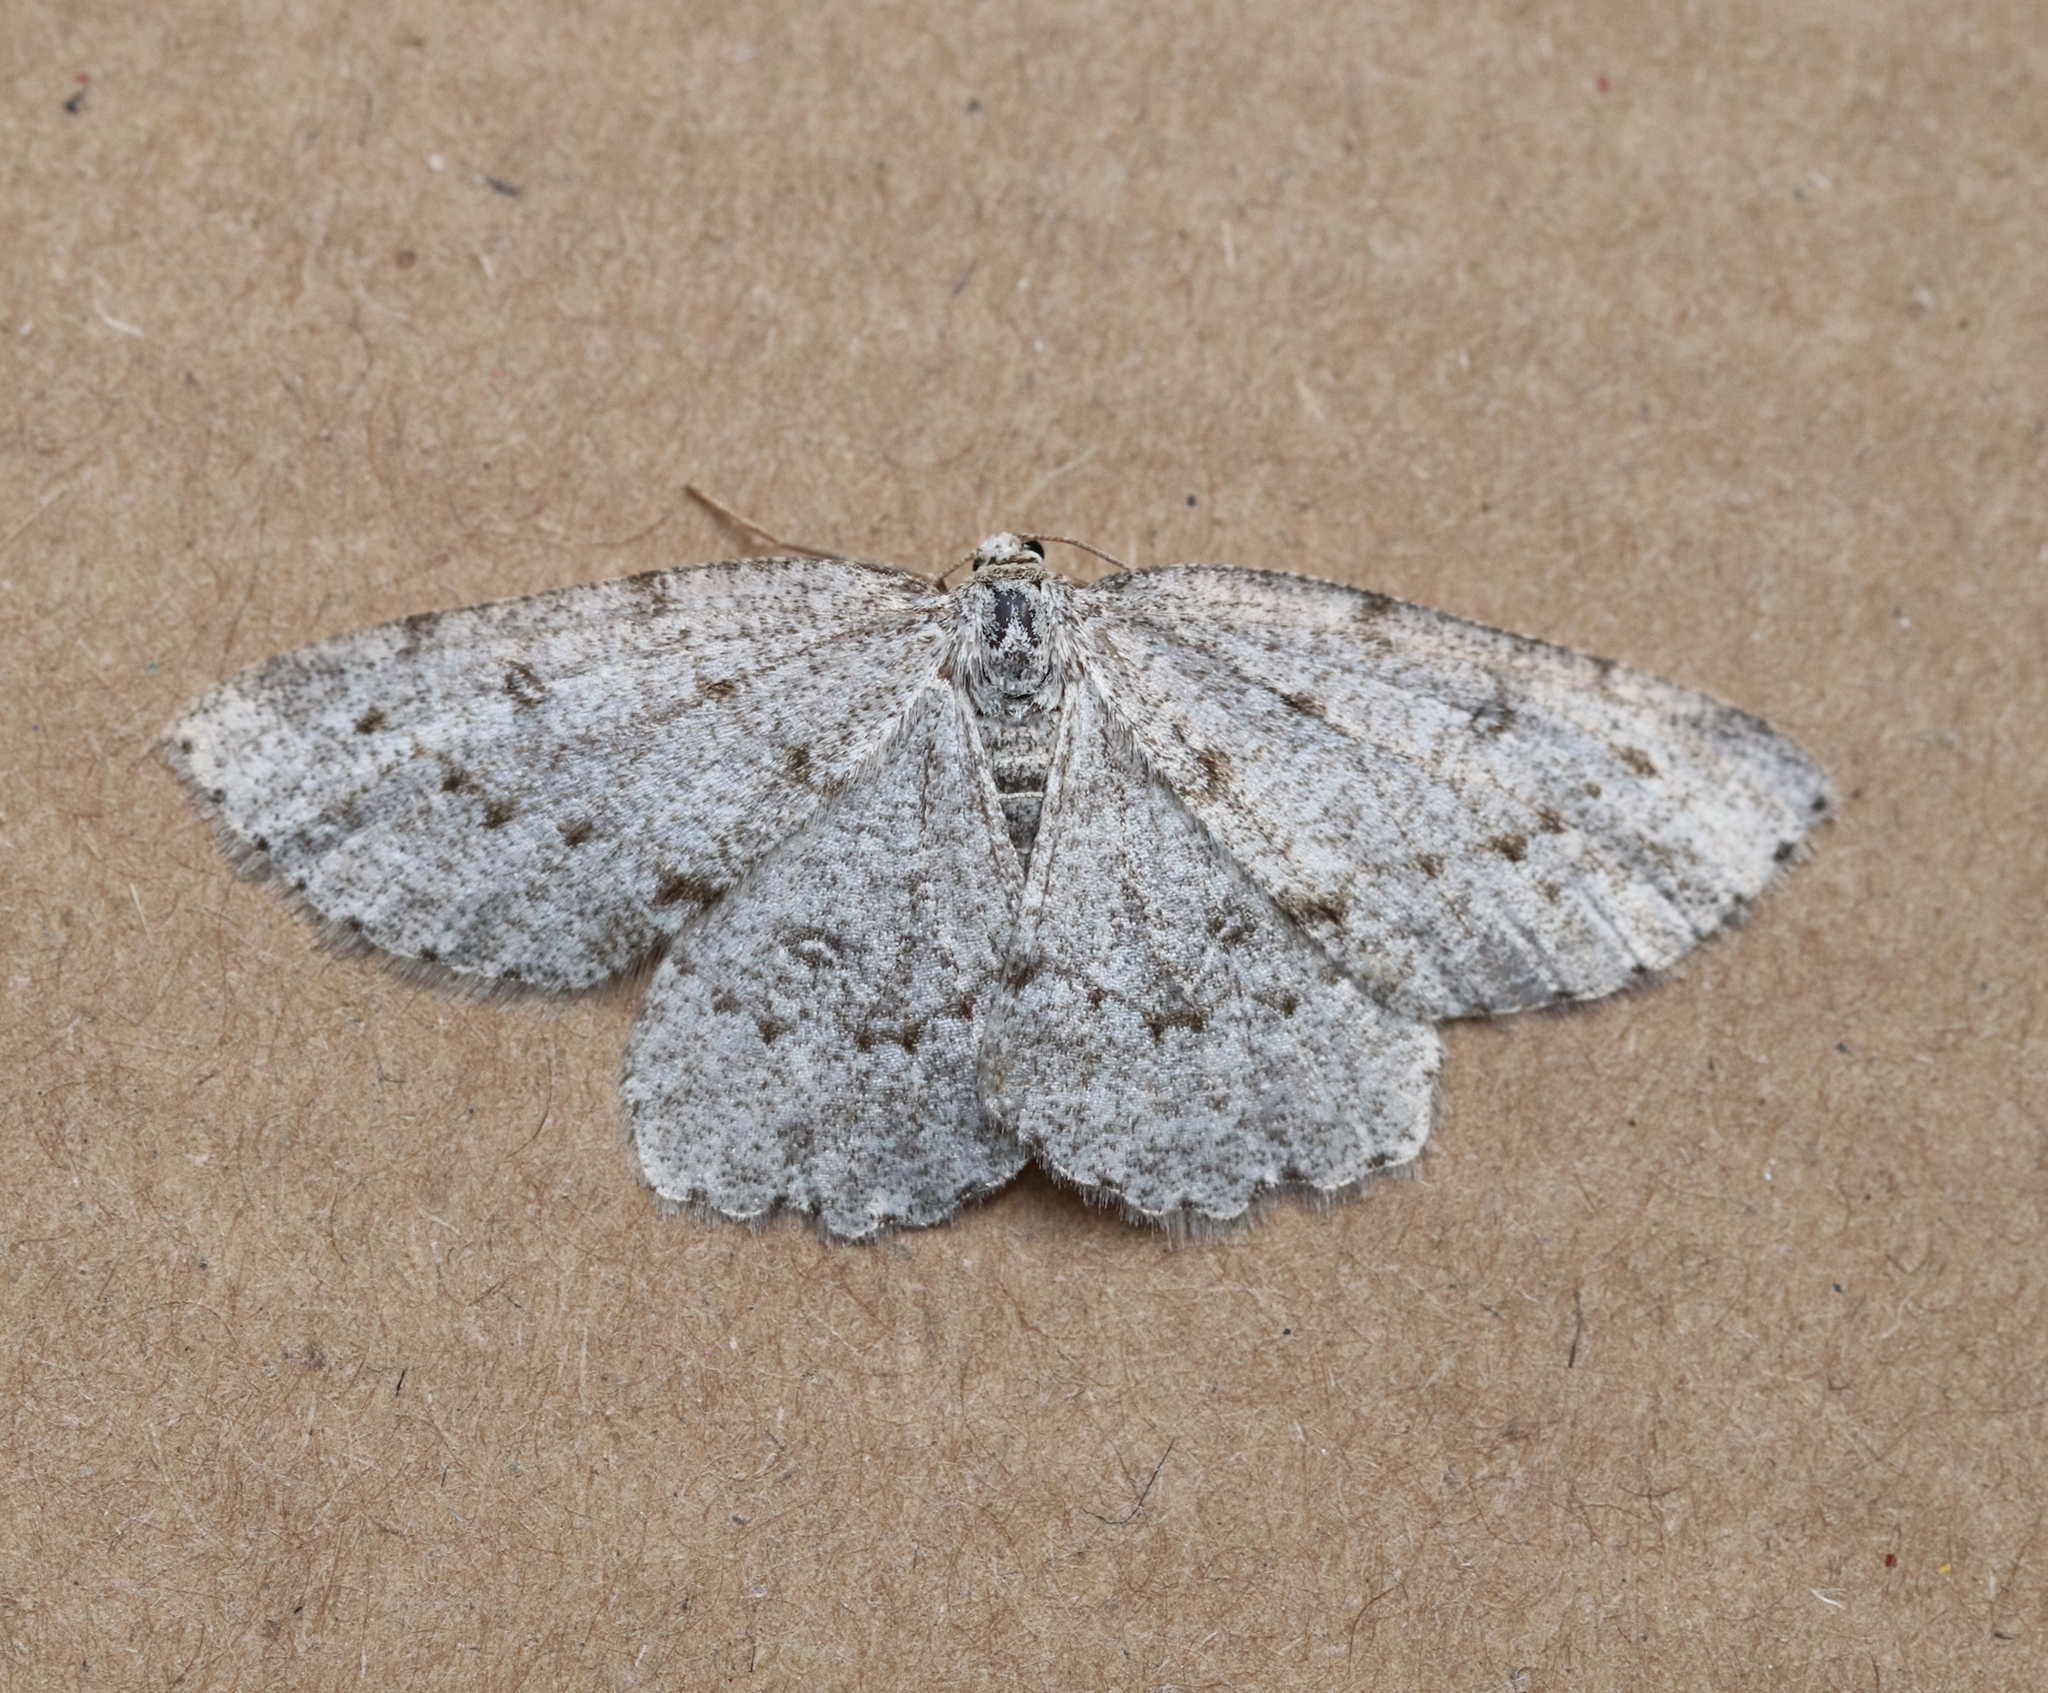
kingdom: Animalia
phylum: Arthropoda
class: Insecta
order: Lepidoptera
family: Geometridae
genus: Elophos
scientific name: Elophos Yezognophos dilucidaria
